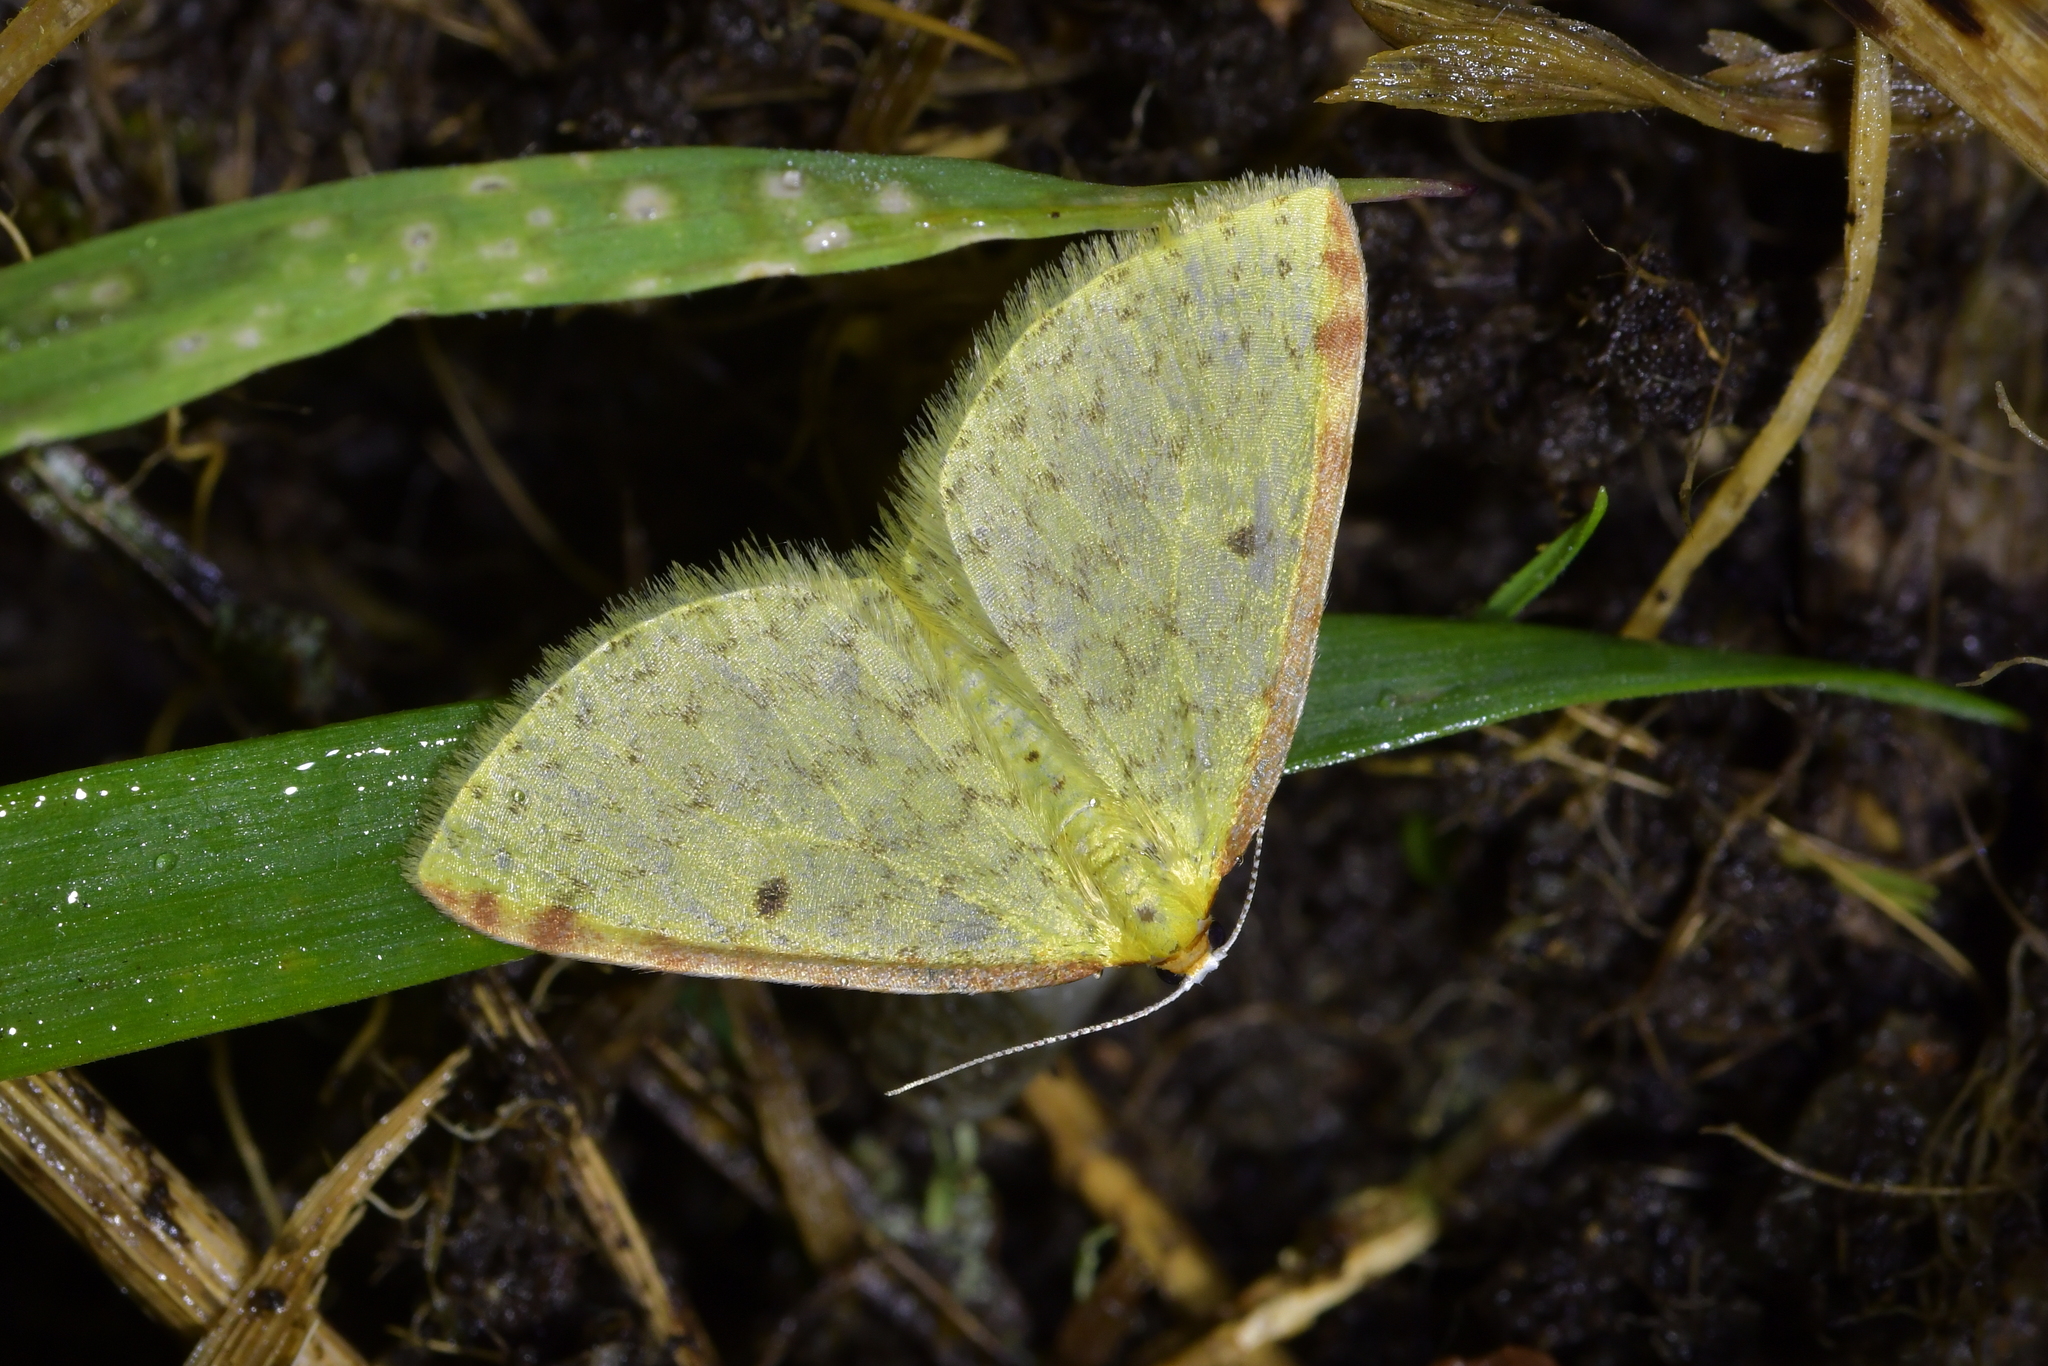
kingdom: Animalia
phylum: Arthropoda
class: Insecta
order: Lepidoptera
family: Geometridae
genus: Epiphryne
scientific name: Epiphryne undosata
